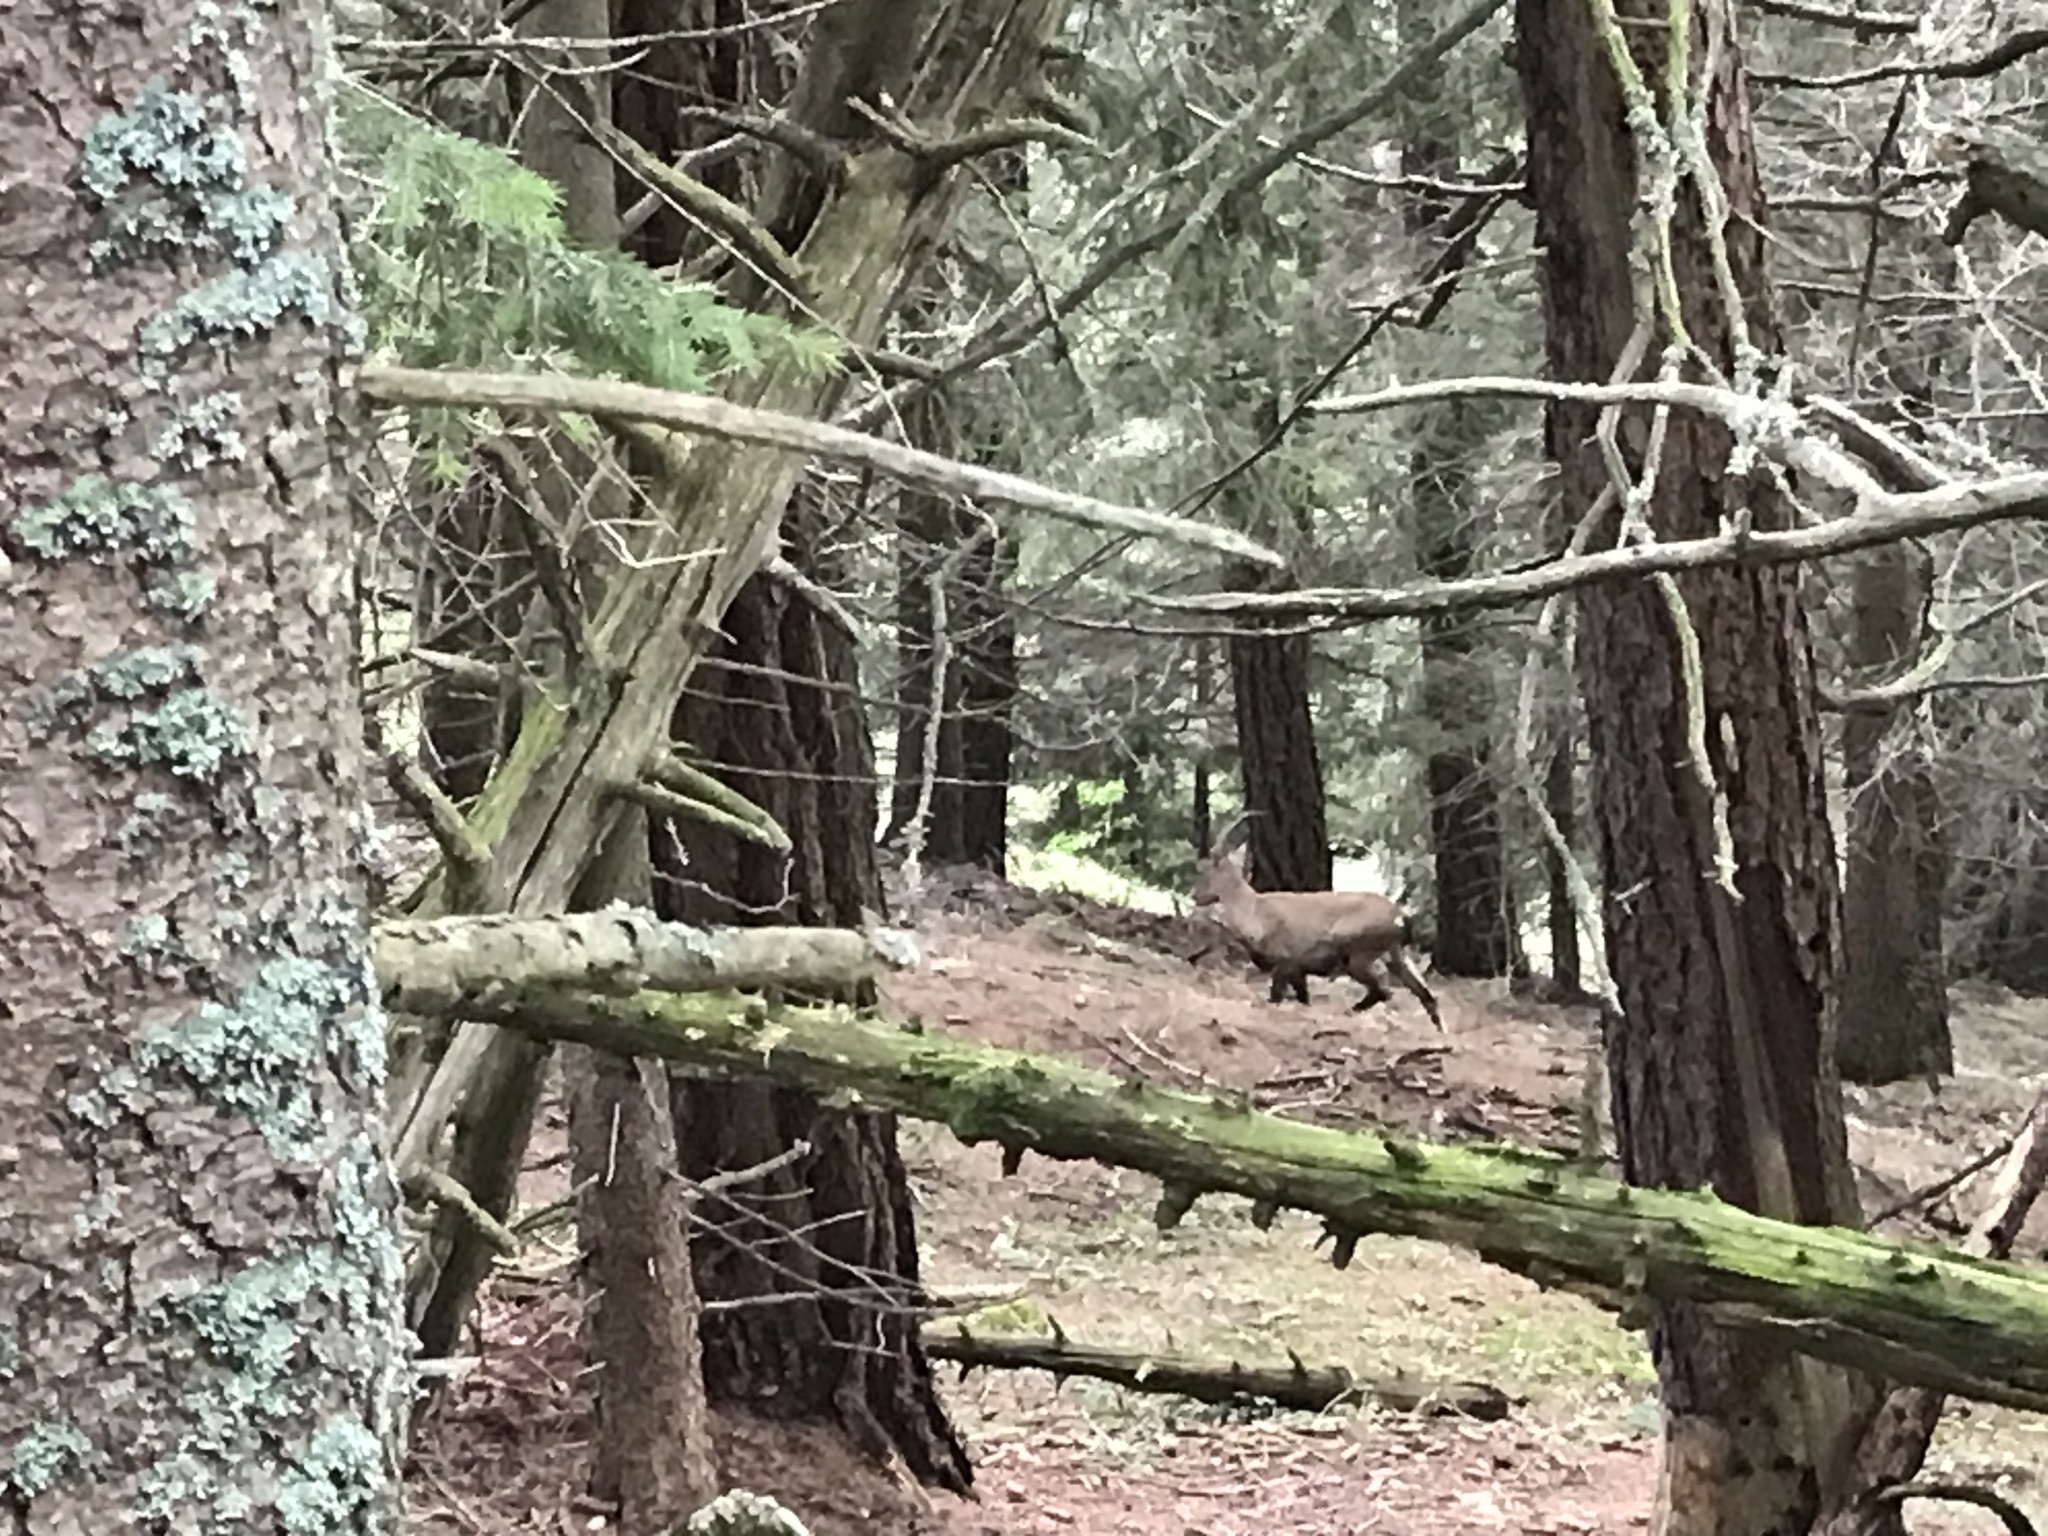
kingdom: Animalia
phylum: Chordata
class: Mammalia
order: Artiodactyla
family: Bovidae
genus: Capra
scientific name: Capra ibex
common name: Alpine ibex
